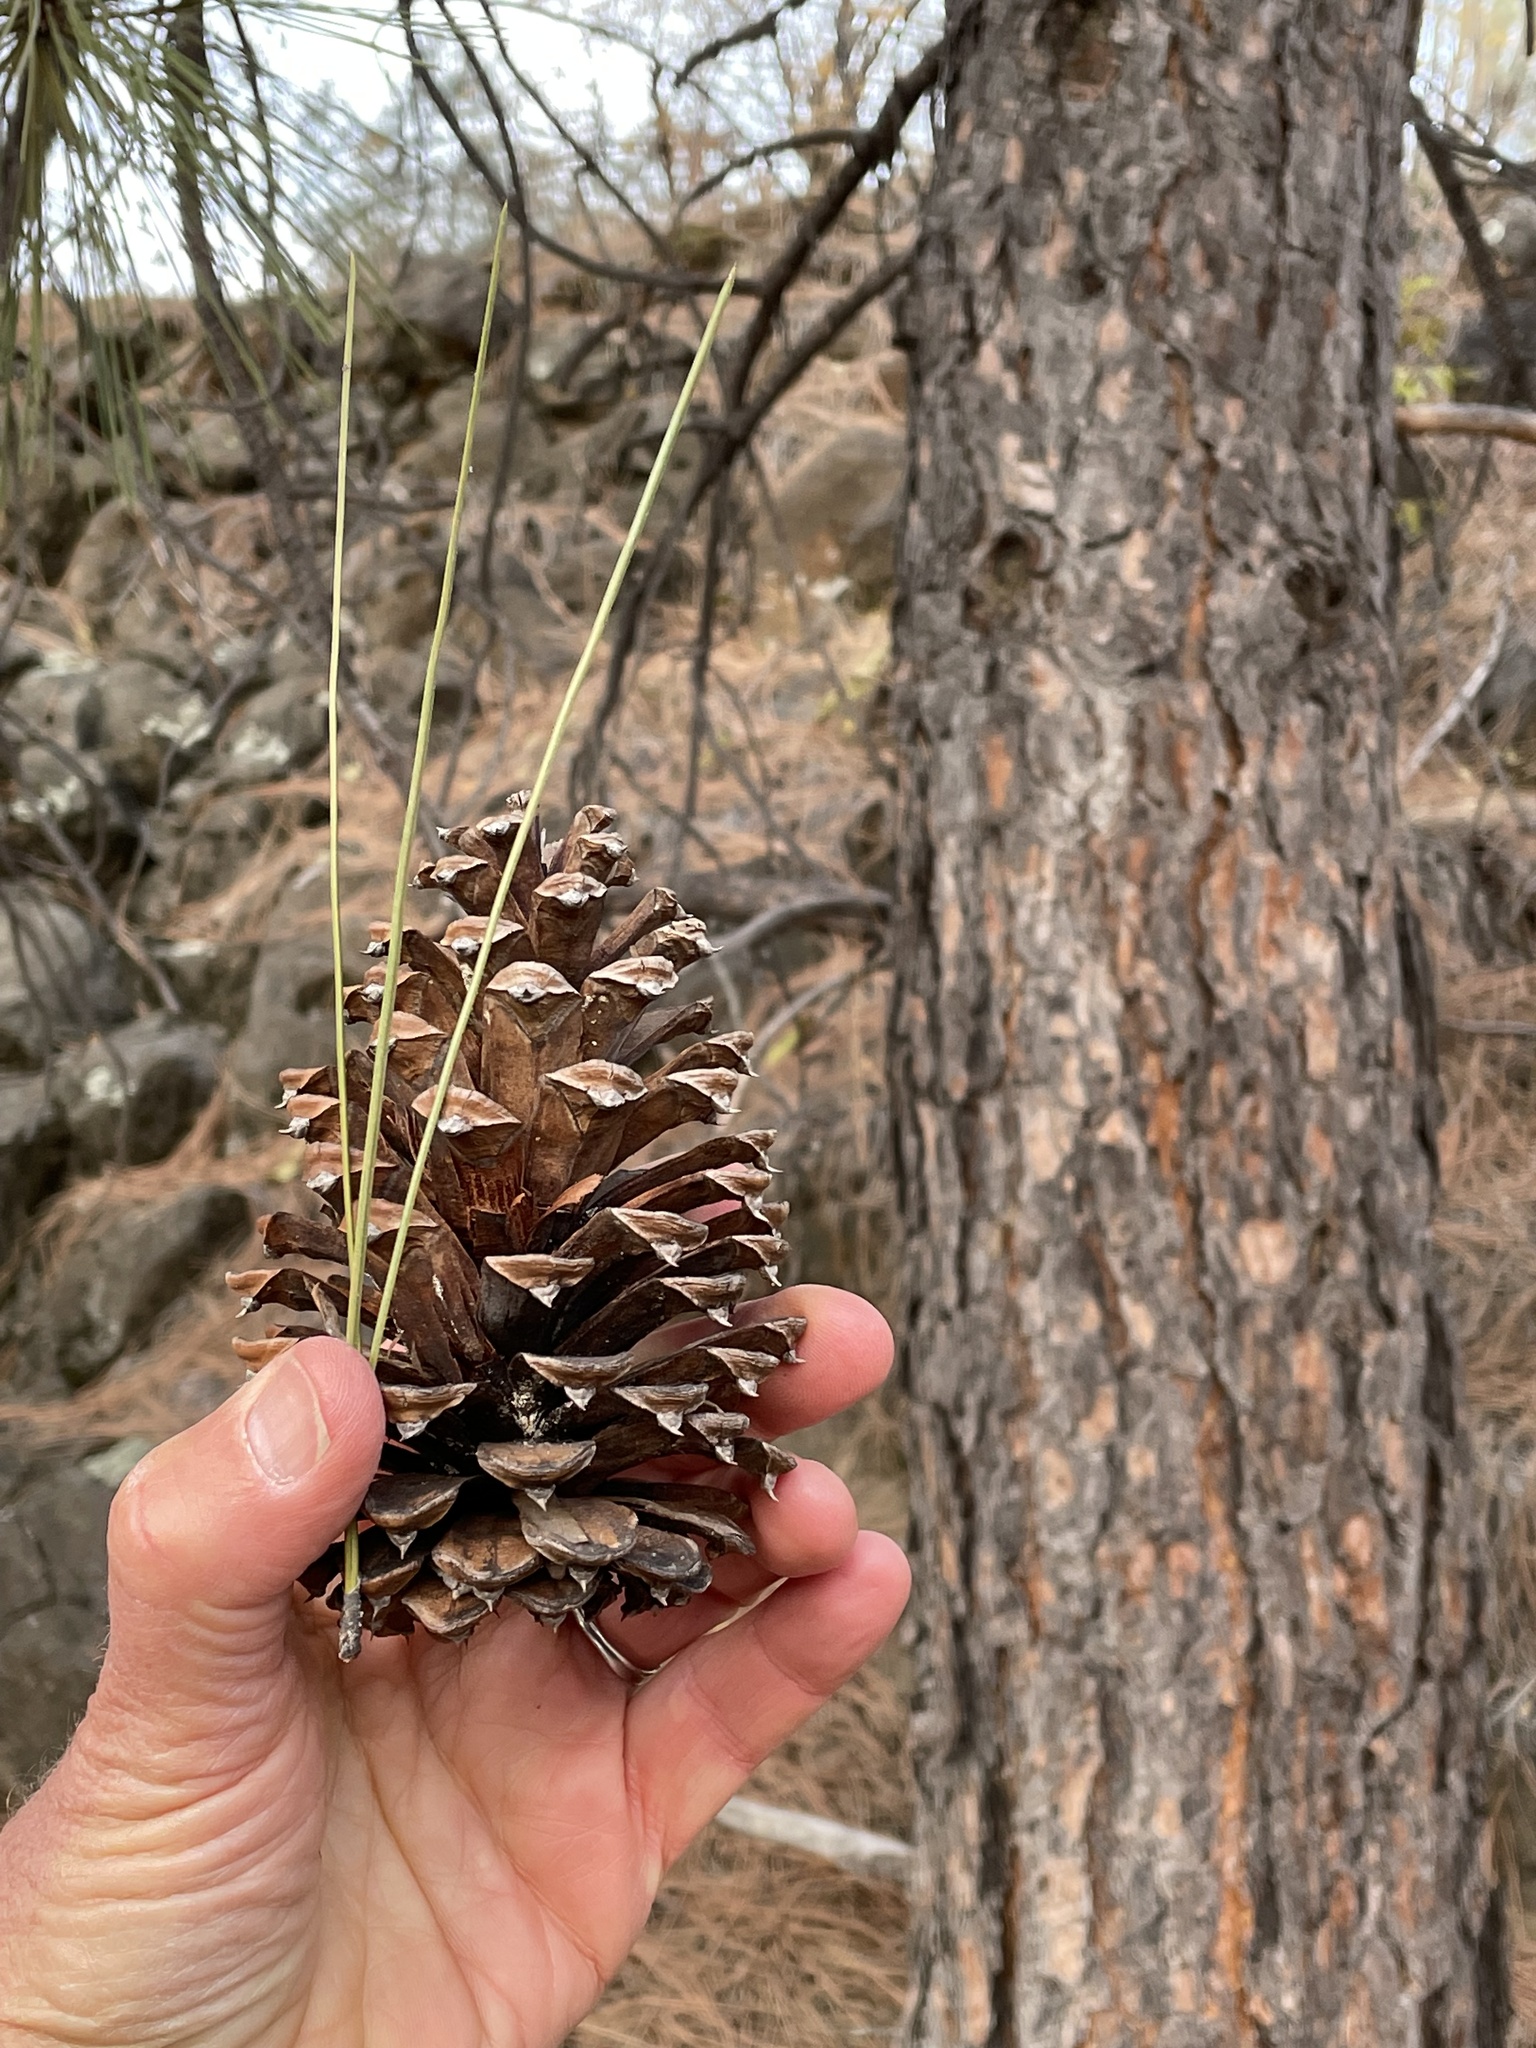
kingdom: Plantae
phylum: Tracheophyta
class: Pinopsida
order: Pinales
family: Pinaceae
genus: Pinus
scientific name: Pinus ponderosa
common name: Western yellow-pine
